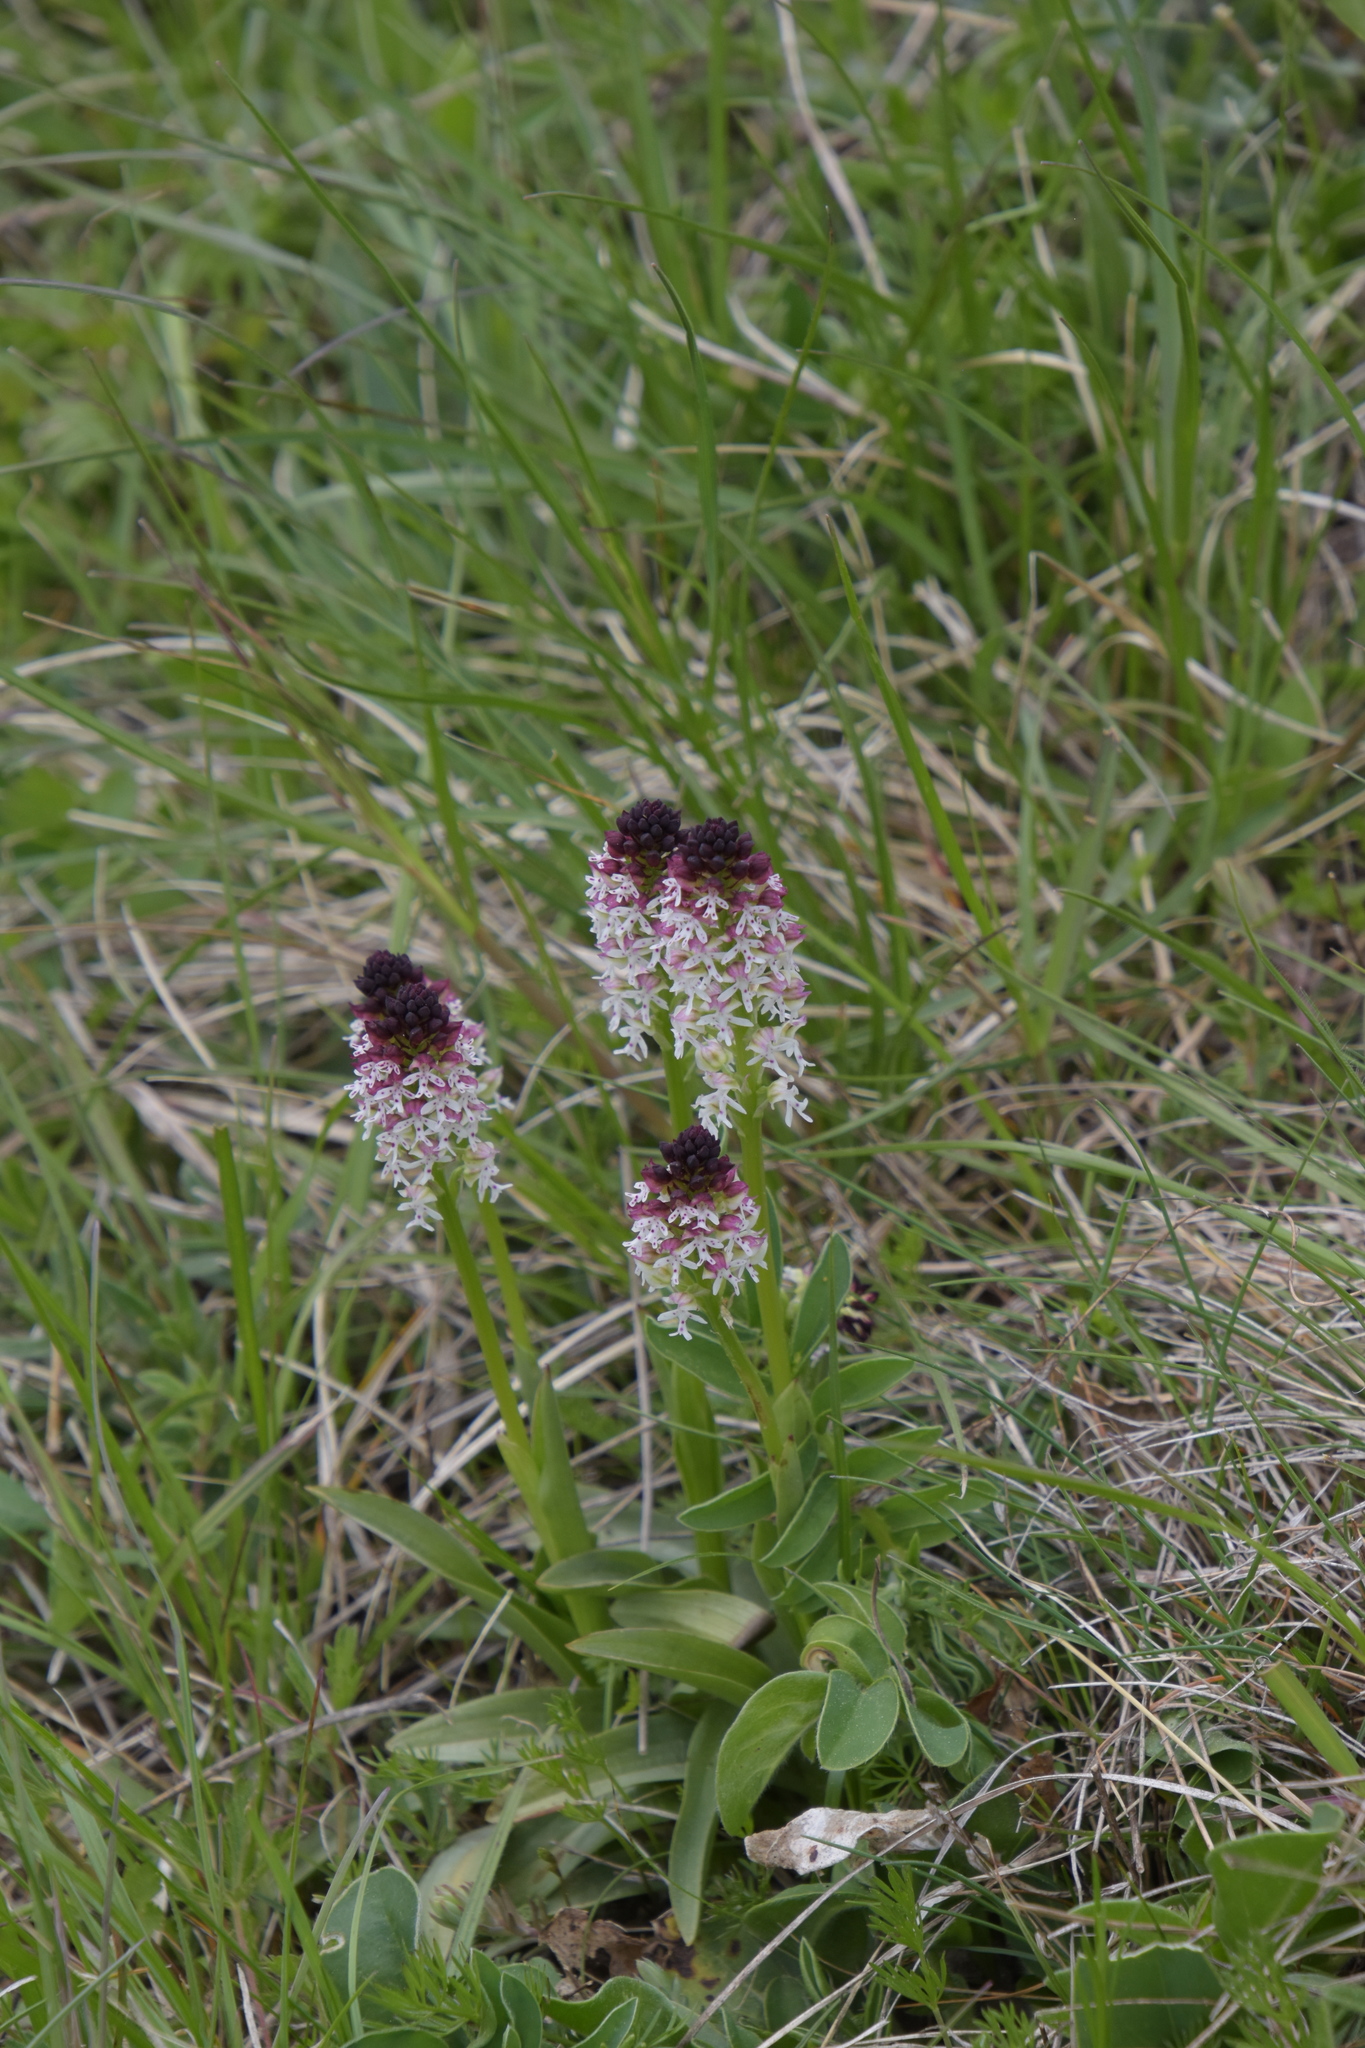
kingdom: Plantae
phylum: Tracheophyta
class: Liliopsida
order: Asparagales
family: Orchidaceae
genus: Neotinea
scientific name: Neotinea ustulata
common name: Burnt orchid
